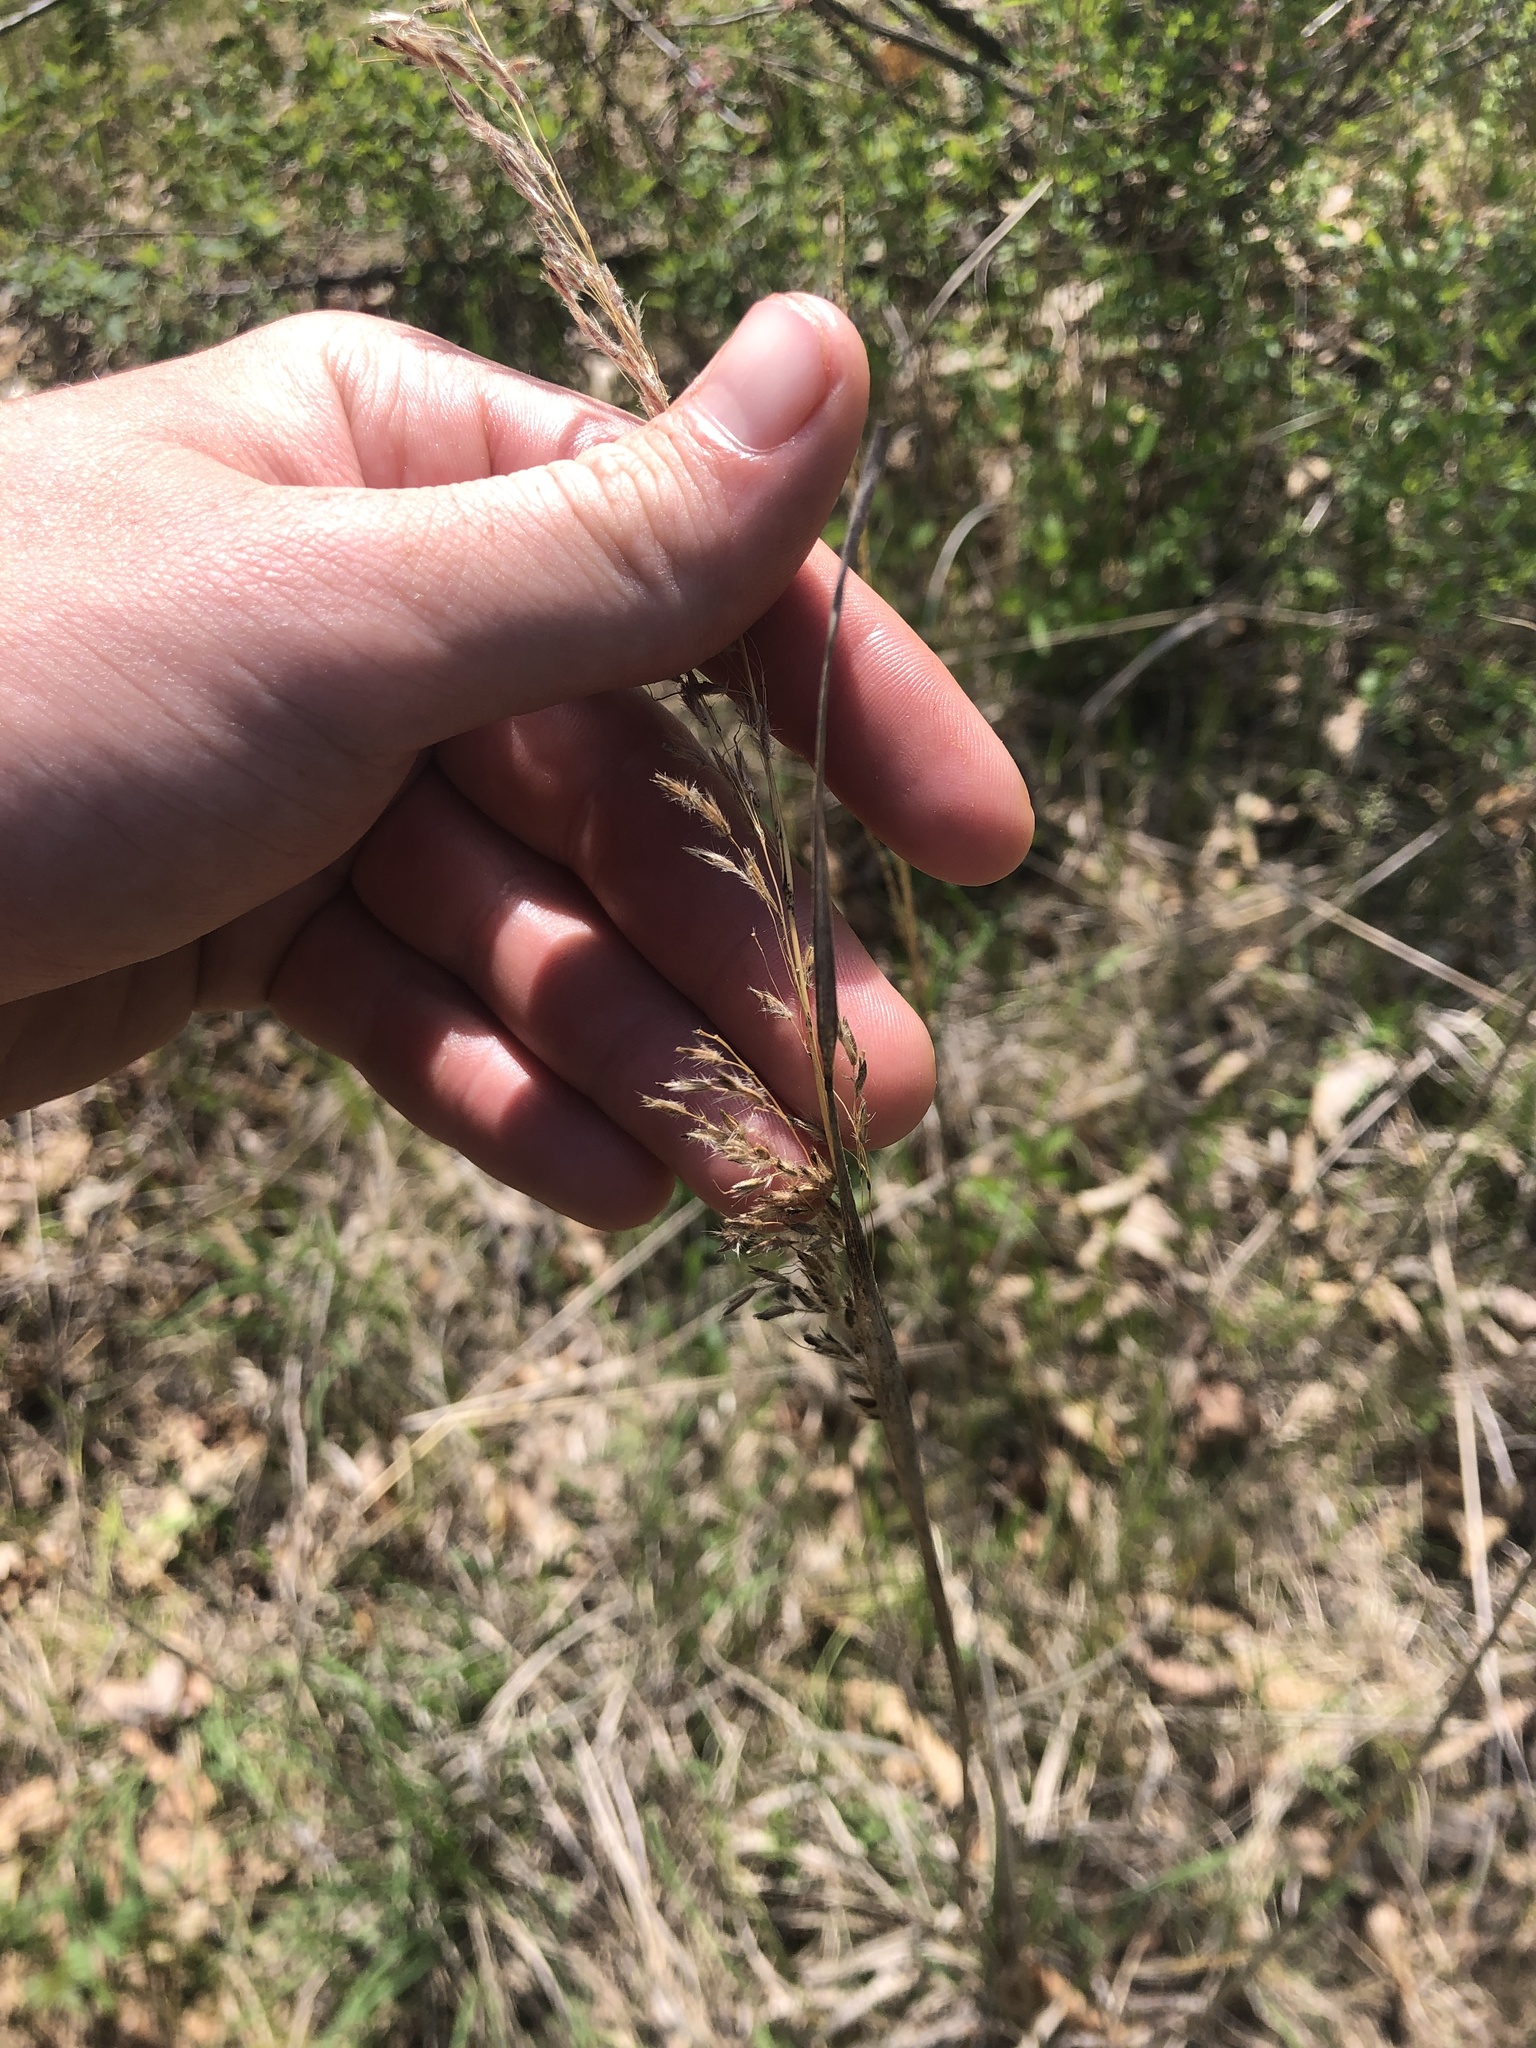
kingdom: Plantae
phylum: Tracheophyta
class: Liliopsida
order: Poales
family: Poaceae
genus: Sorghastrum
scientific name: Sorghastrum nutans
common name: Indian grass
